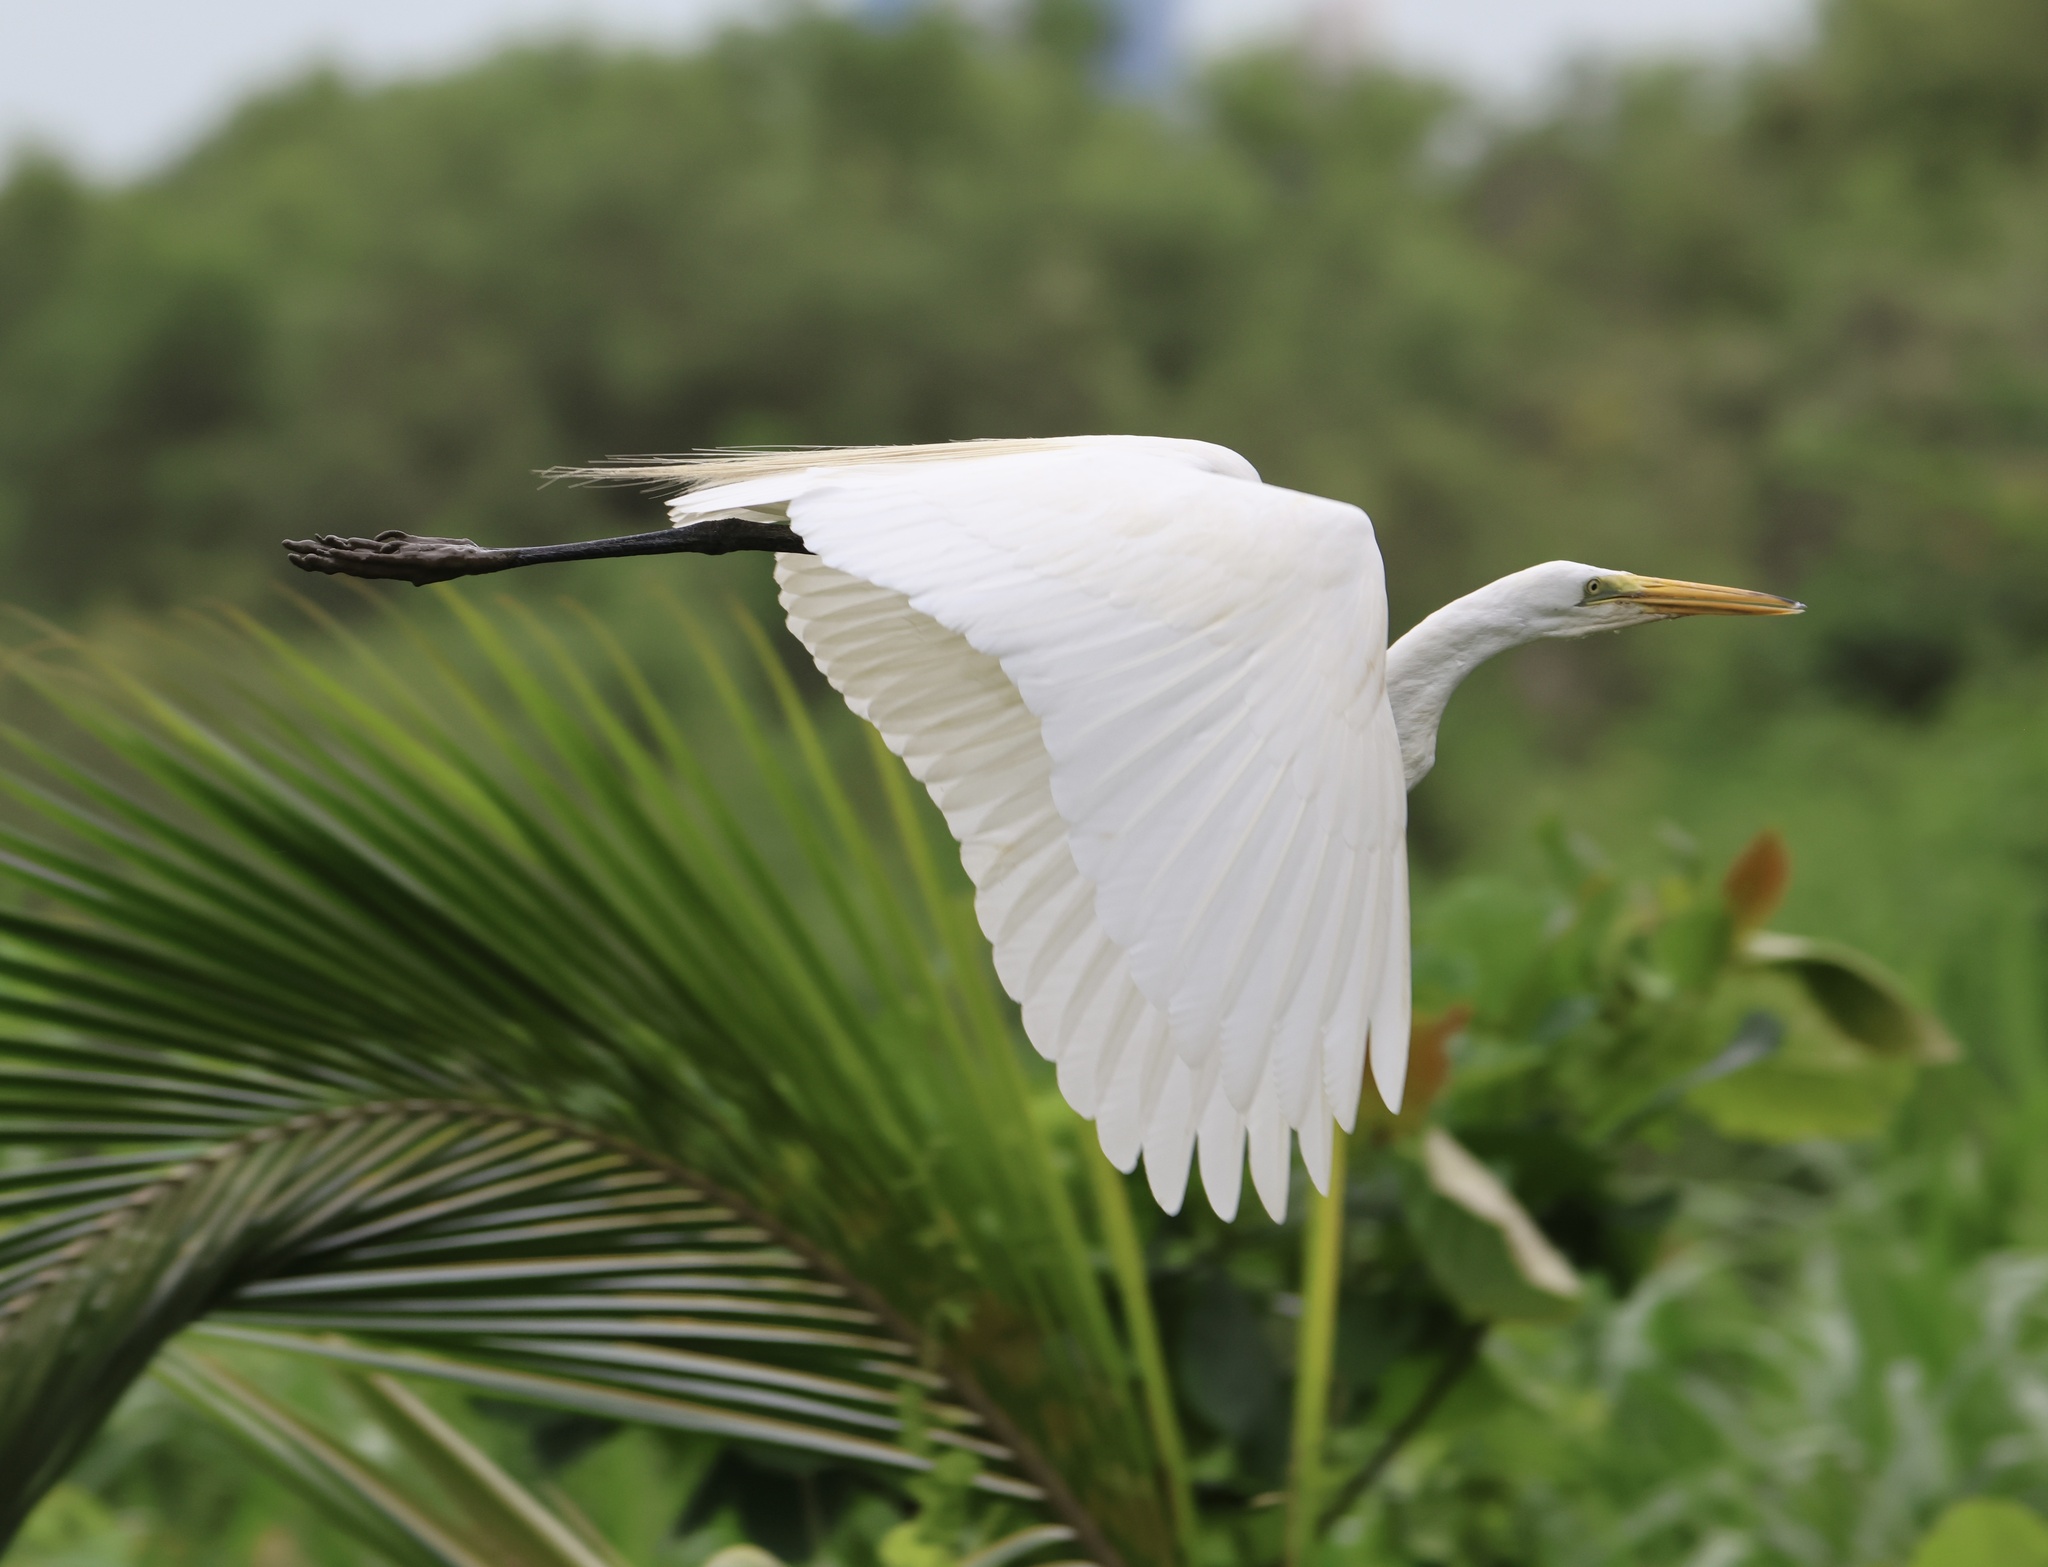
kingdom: Animalia
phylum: Chordata
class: Aves
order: Pelecaniformes
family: Ardeidae
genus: Ardea
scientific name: Ardea alba
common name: Great egret
